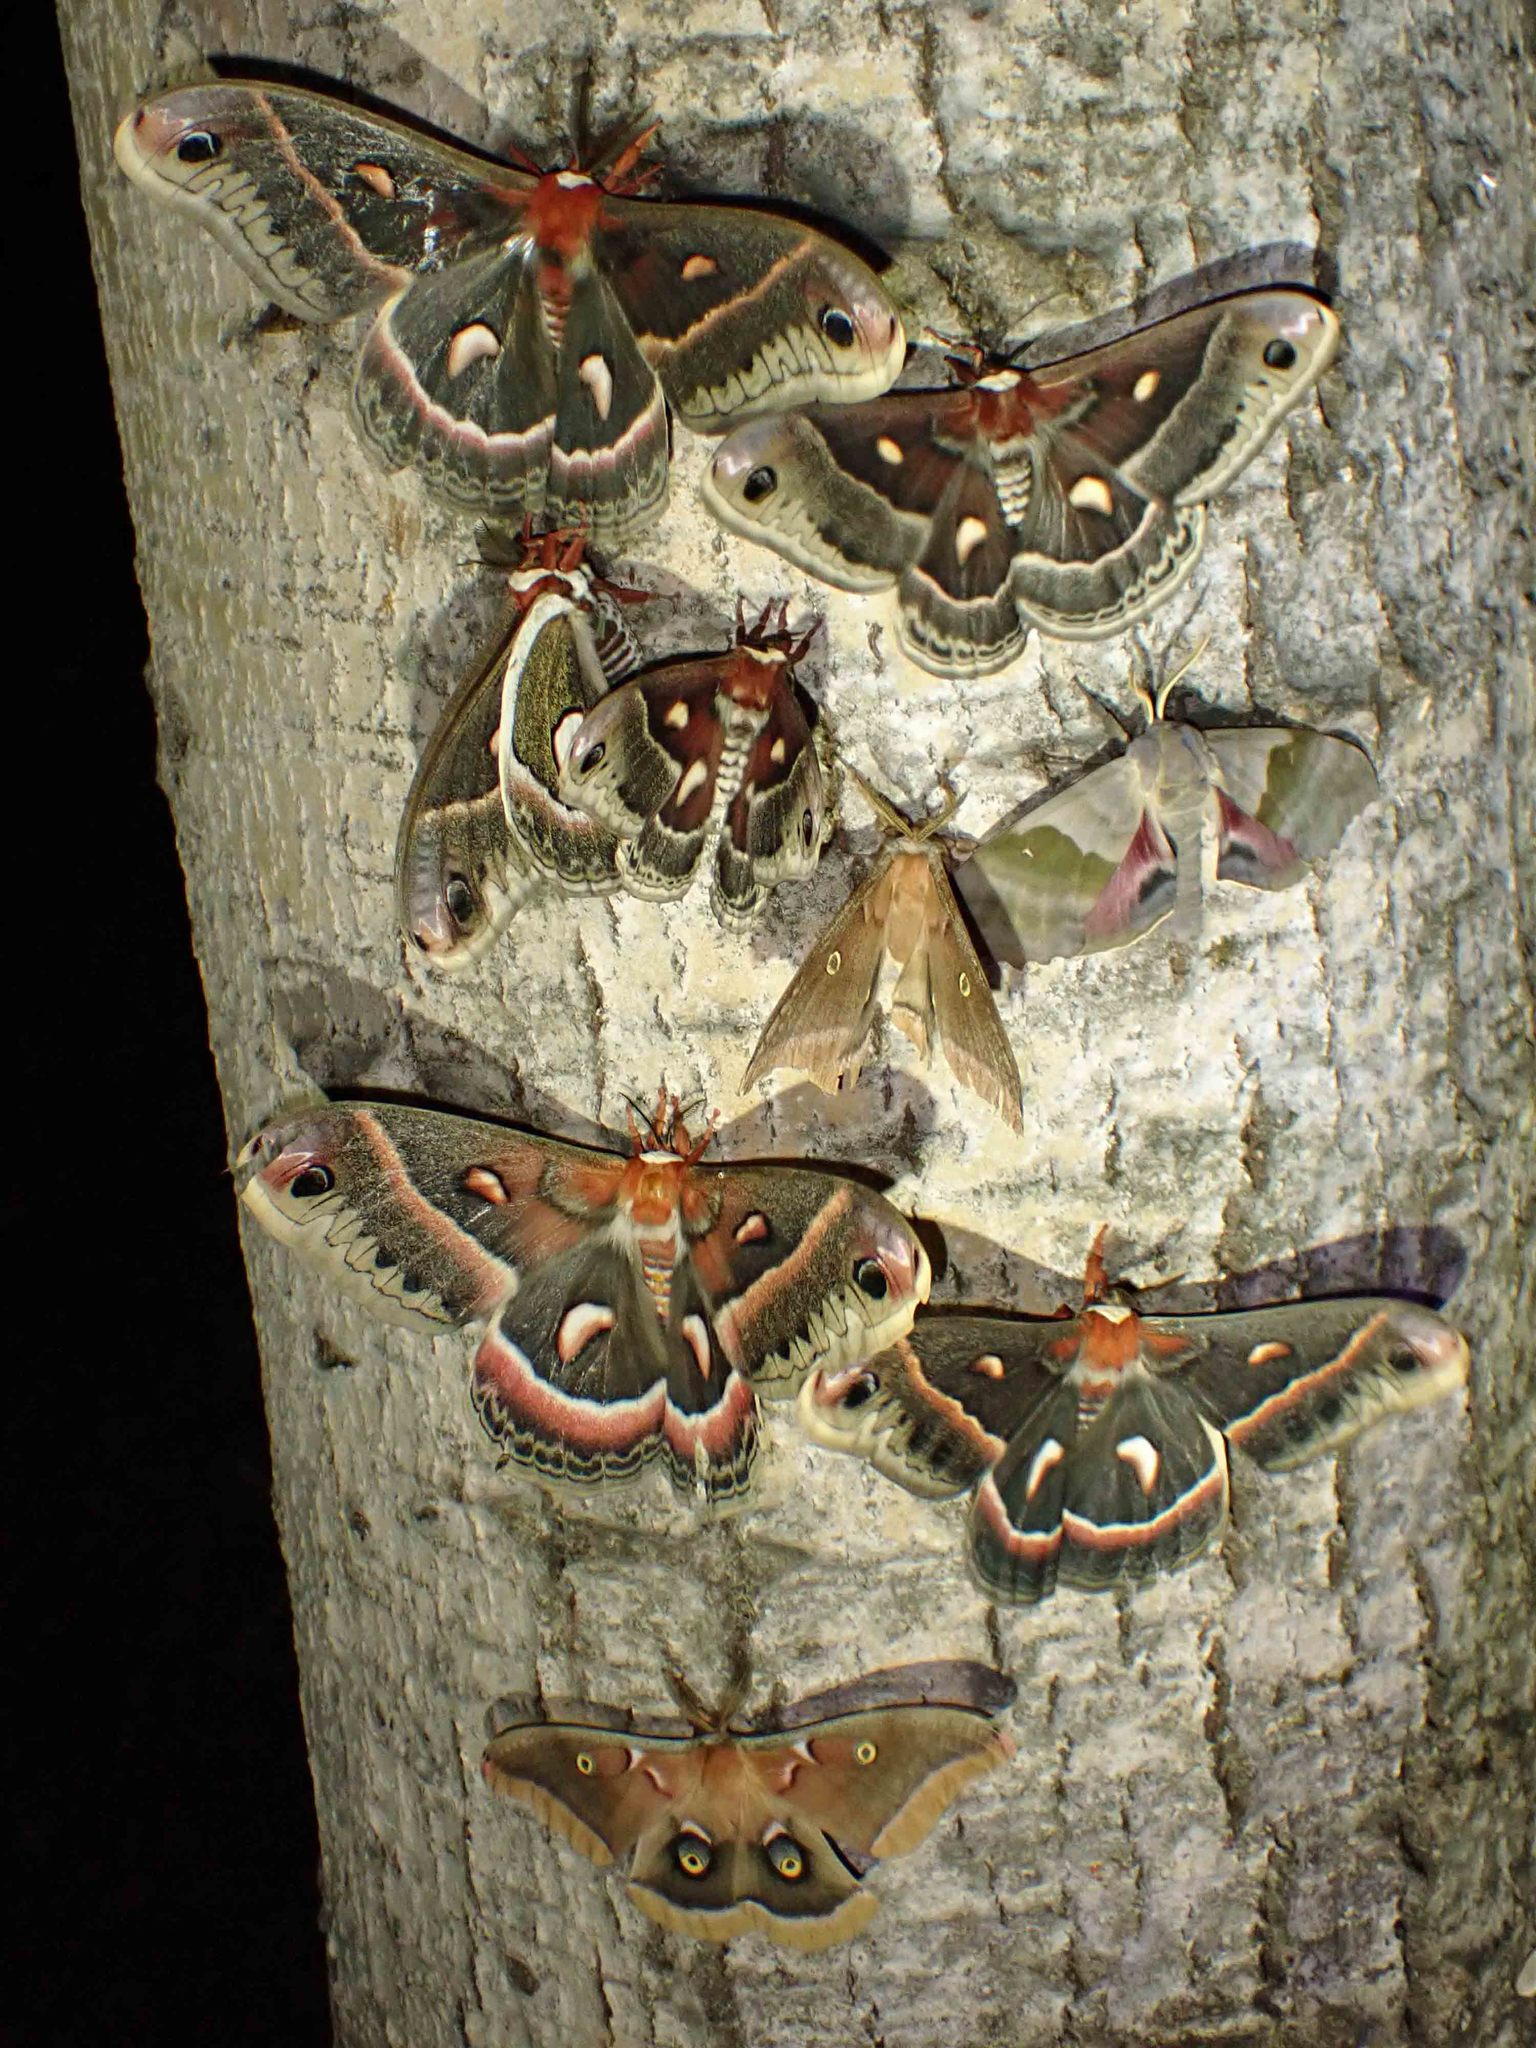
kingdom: Animalia
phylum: Arthropoda
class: Insecta
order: Lepidoptera
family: Sphingidae
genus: Pachysphinx
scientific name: Pachysphinx modesta
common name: Big poplar sphinx
